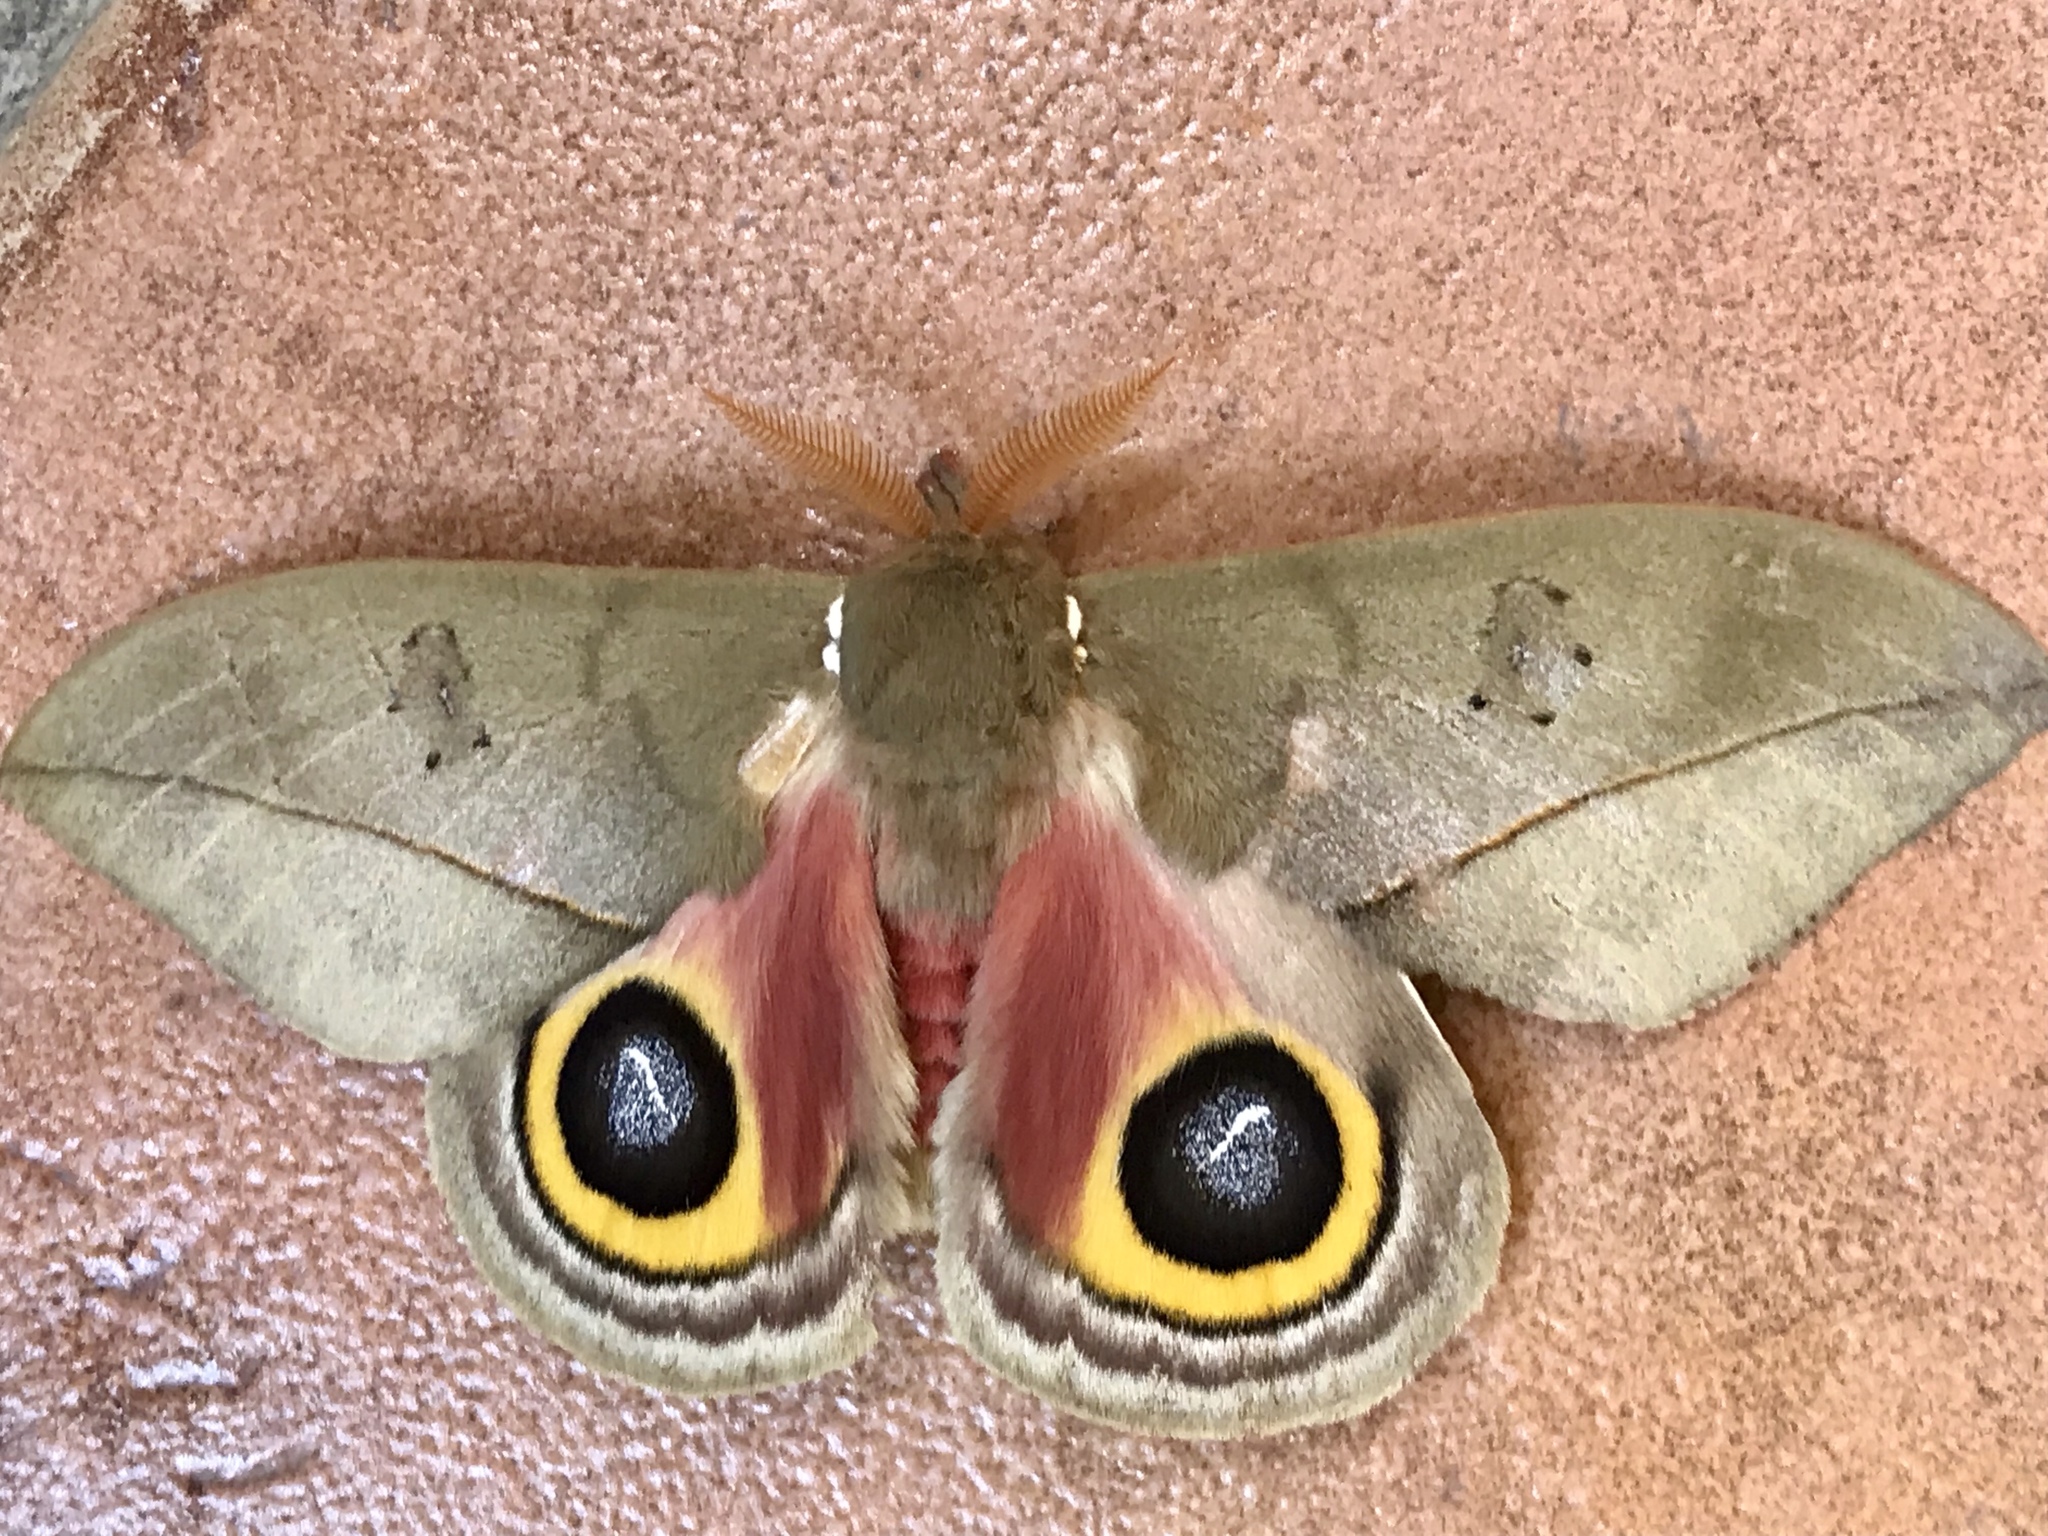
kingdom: Animalia
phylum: Arthropoda
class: Insecta
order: Lepidoptera
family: Saturniidae
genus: Automeris
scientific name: Automeris cecrops
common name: Cecrops eyed silkmoth
